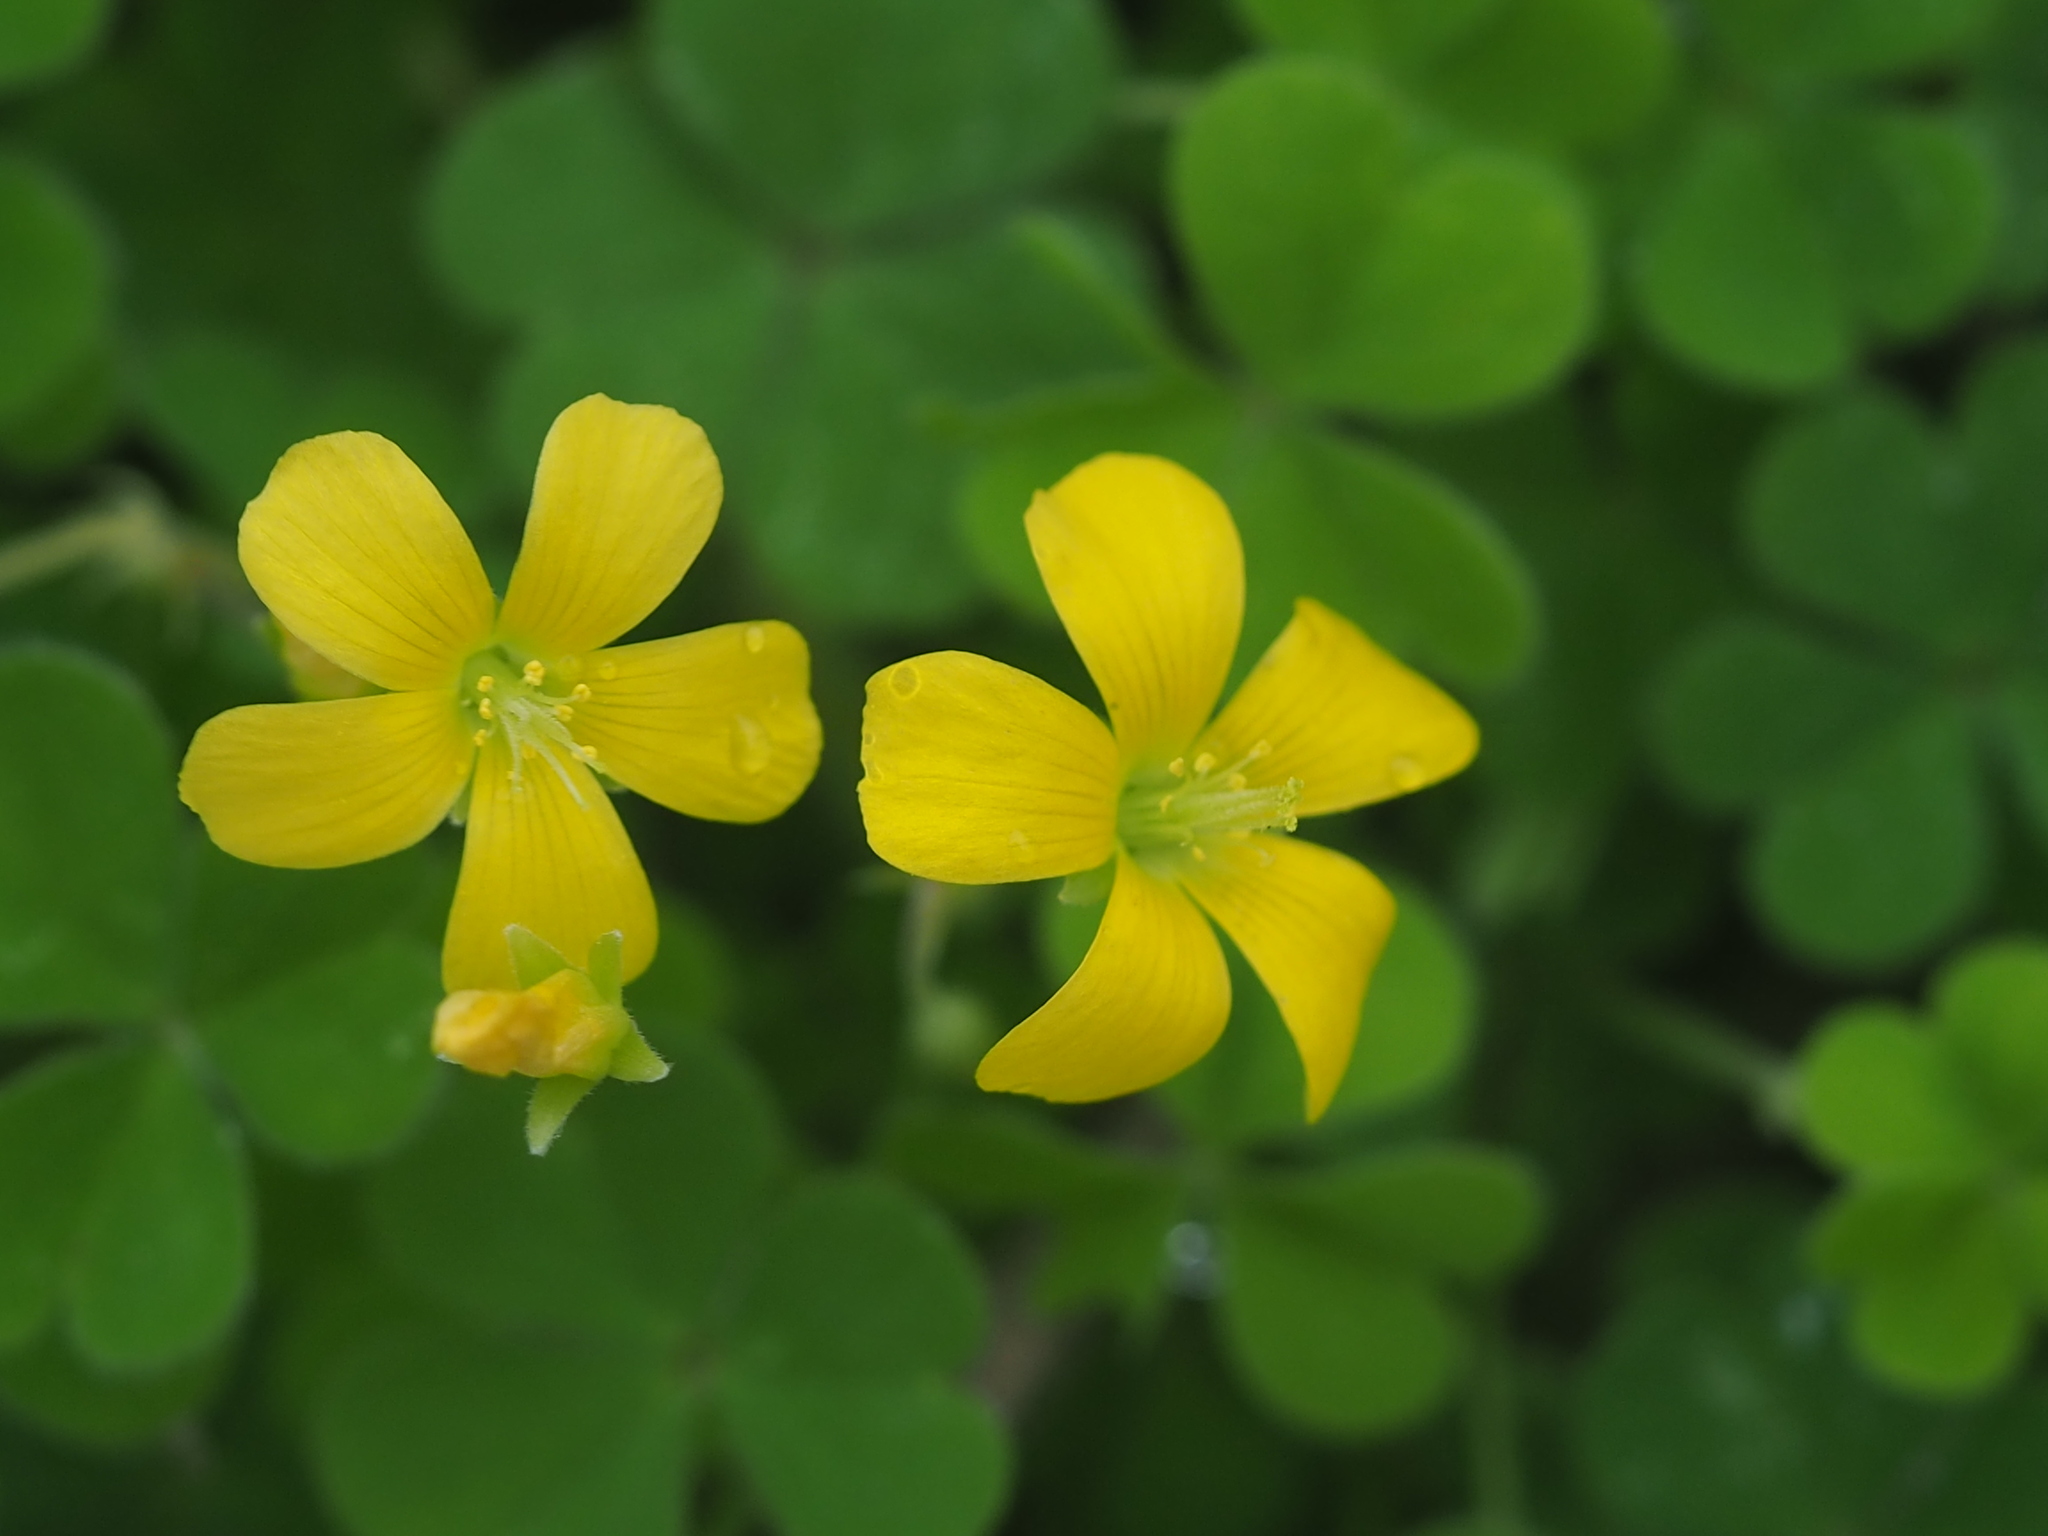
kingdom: Plantae
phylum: Tracheophyta
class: Magnoliopsida
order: Oxalidales
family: Oxalidaceae
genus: Oxalis
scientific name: Oxalis corniculata
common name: Procumbent yellow-sorrel
